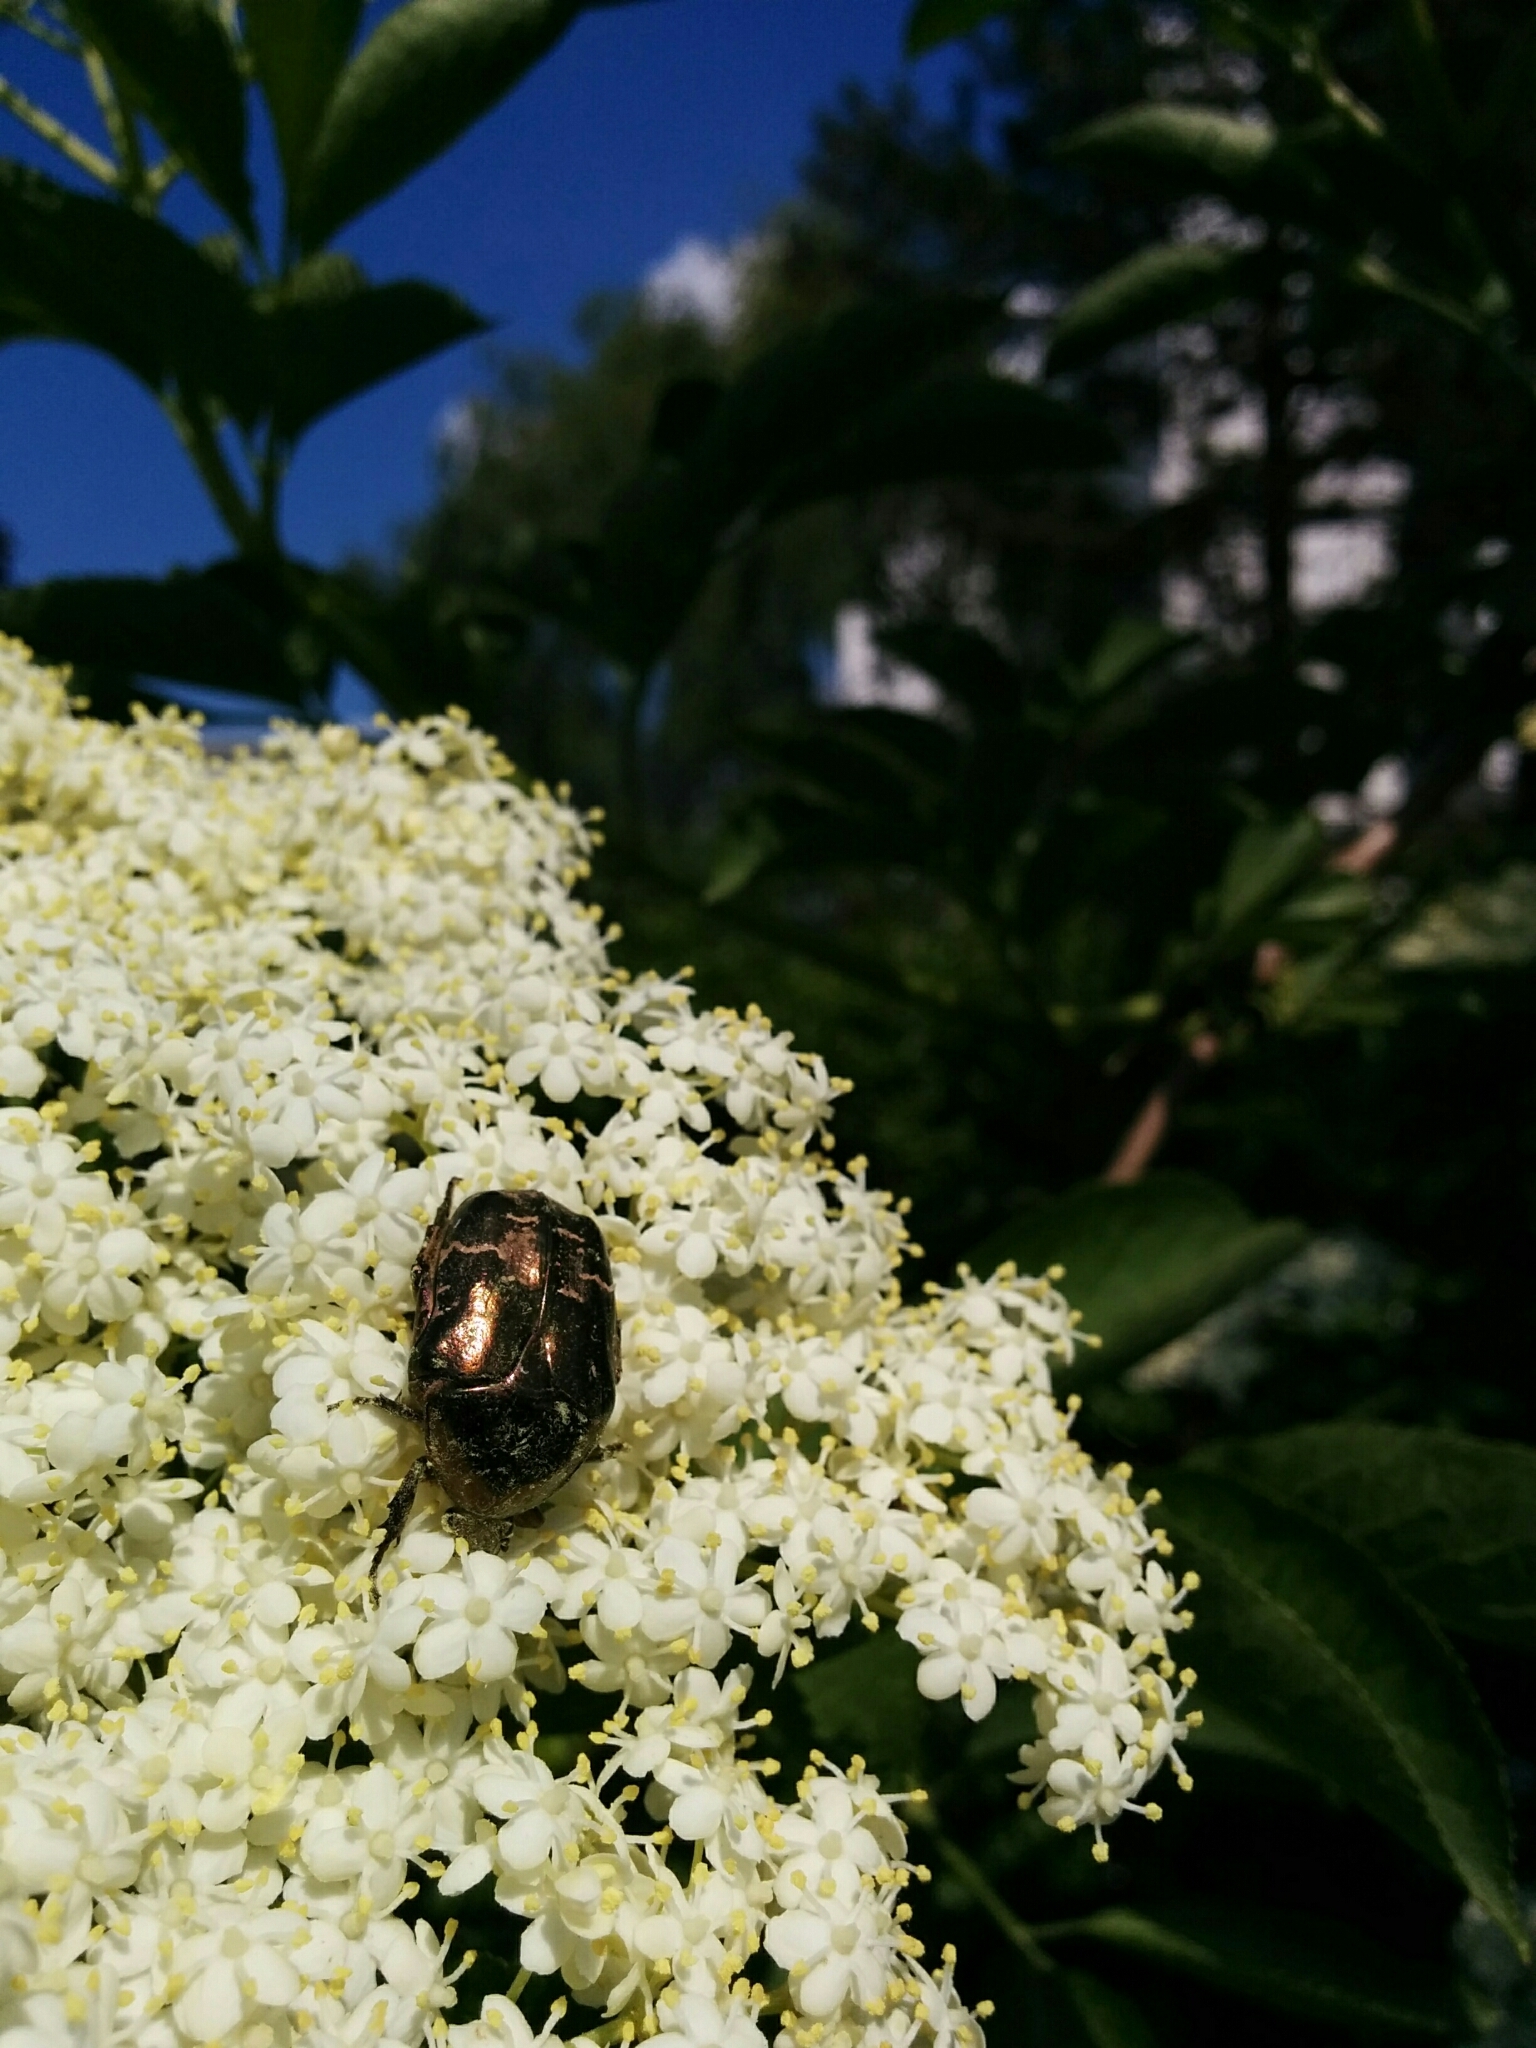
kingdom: Animalia
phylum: Arthropoda
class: Insecta
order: Coleoptera
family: Scarabaeidae
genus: Cetonia
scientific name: Cetonia aurata
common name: Rose chafer
